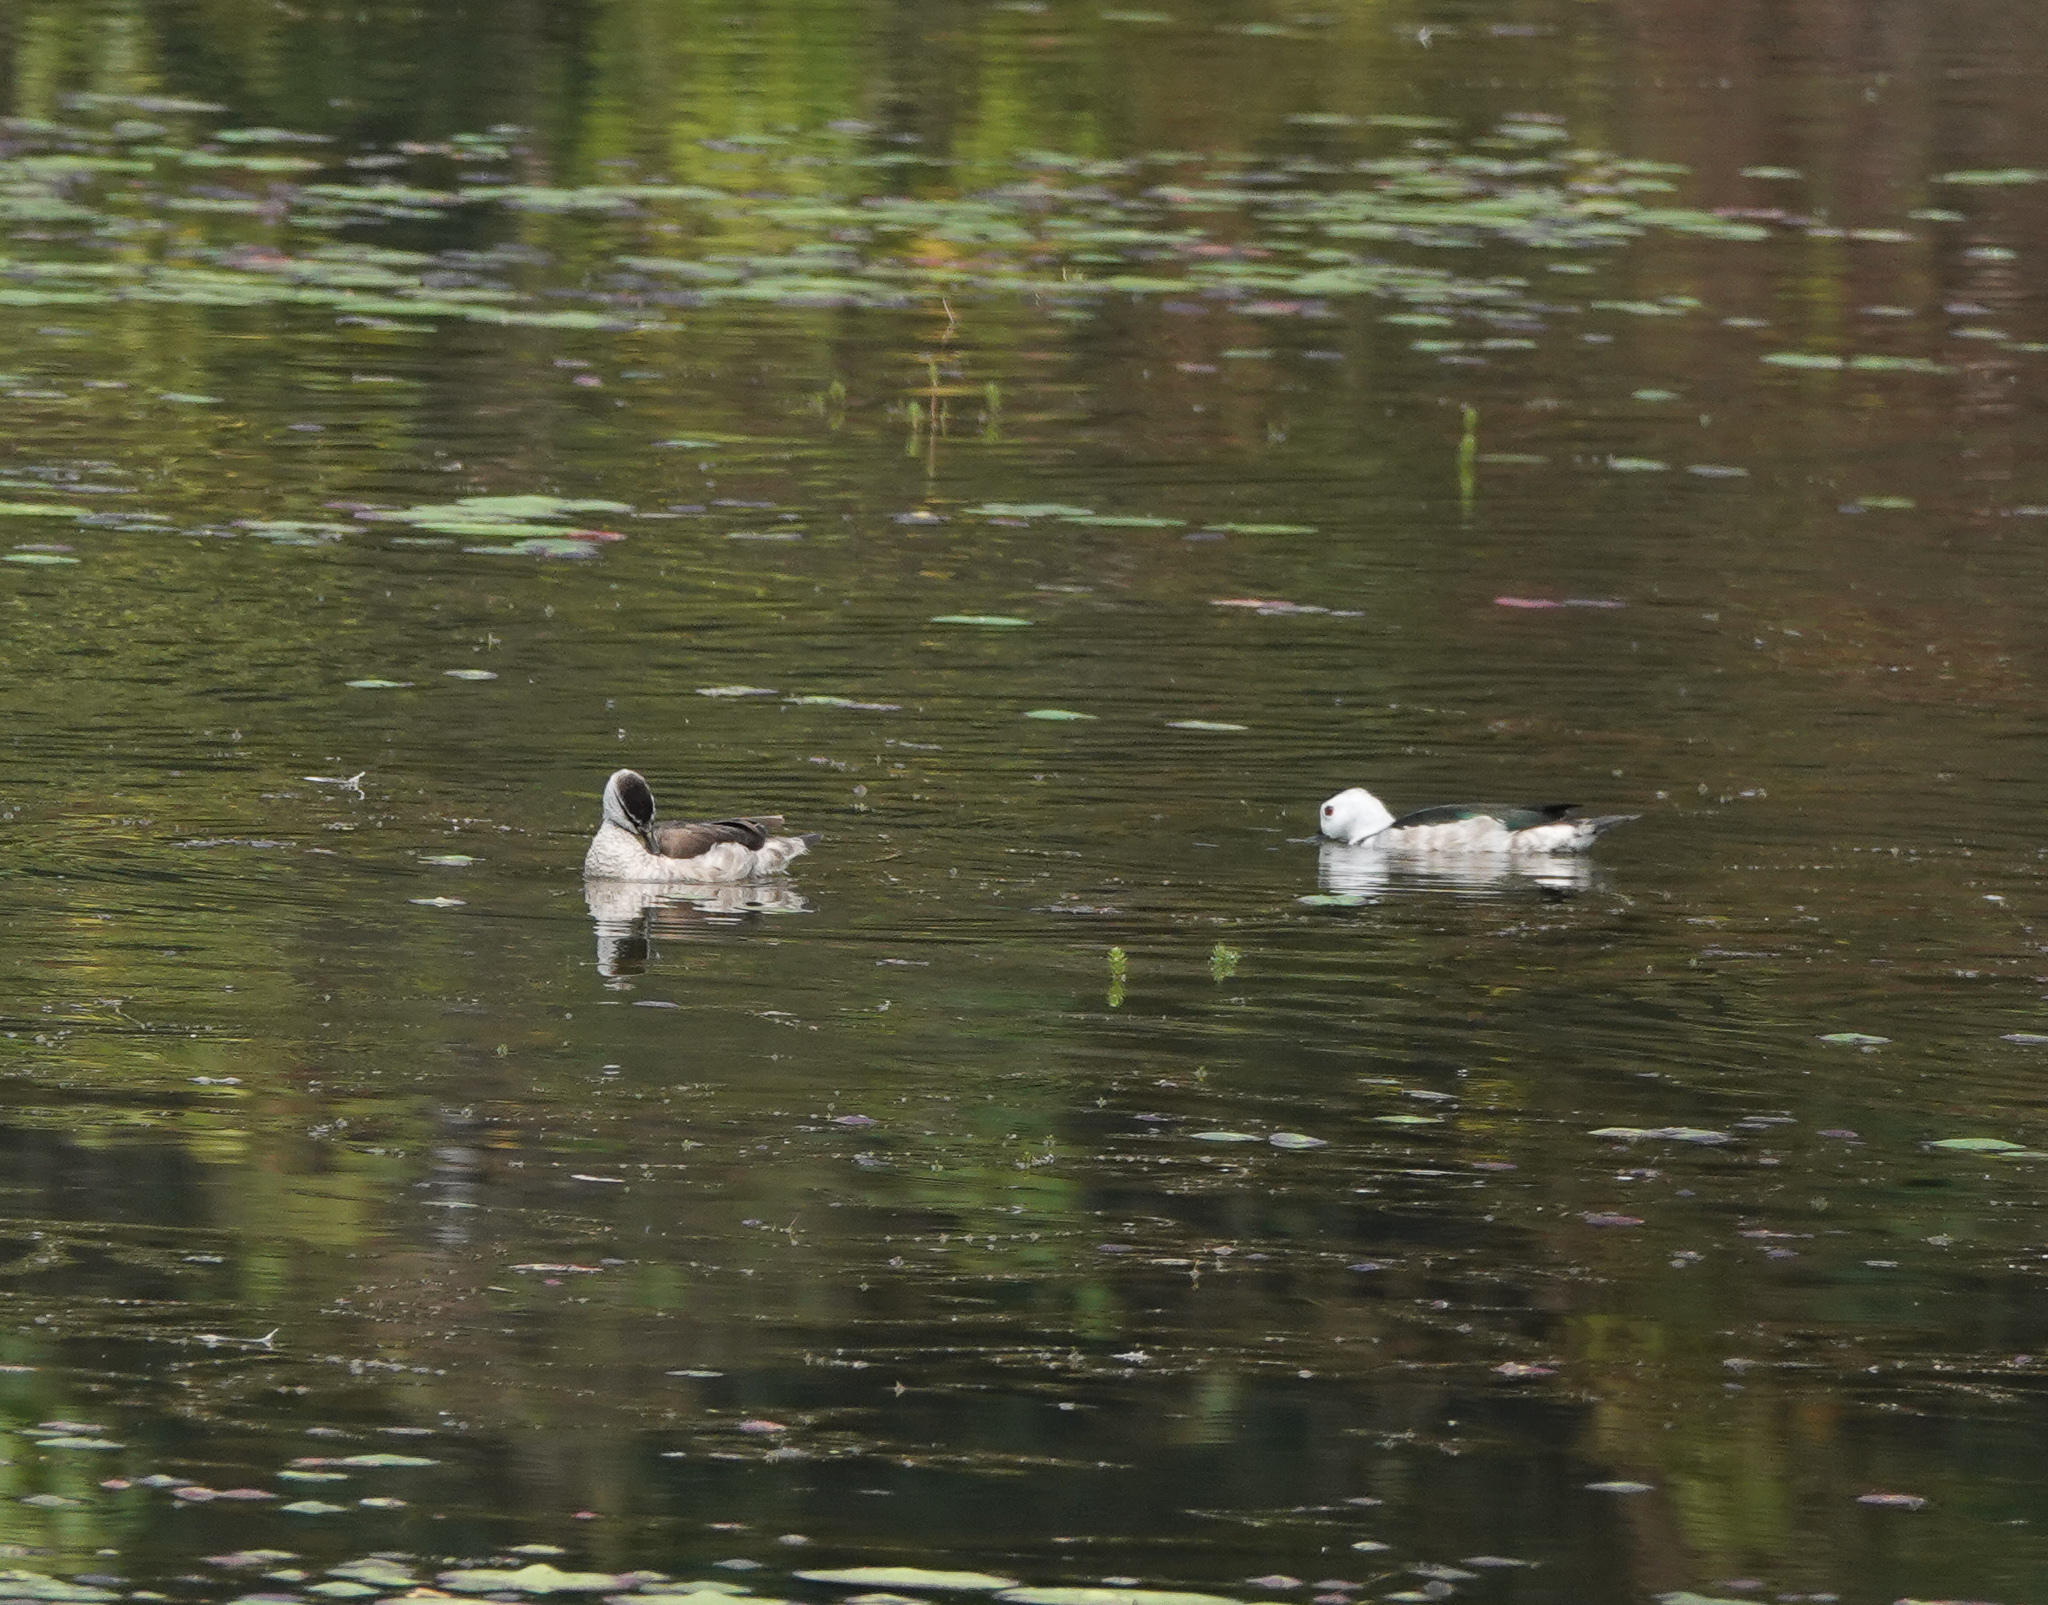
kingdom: Animalia
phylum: Chordata
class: Aves
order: Anseriformes
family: Anatidae
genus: Nettapus
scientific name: Nettapus coromandelianus
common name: Cotton pygmy-goose
